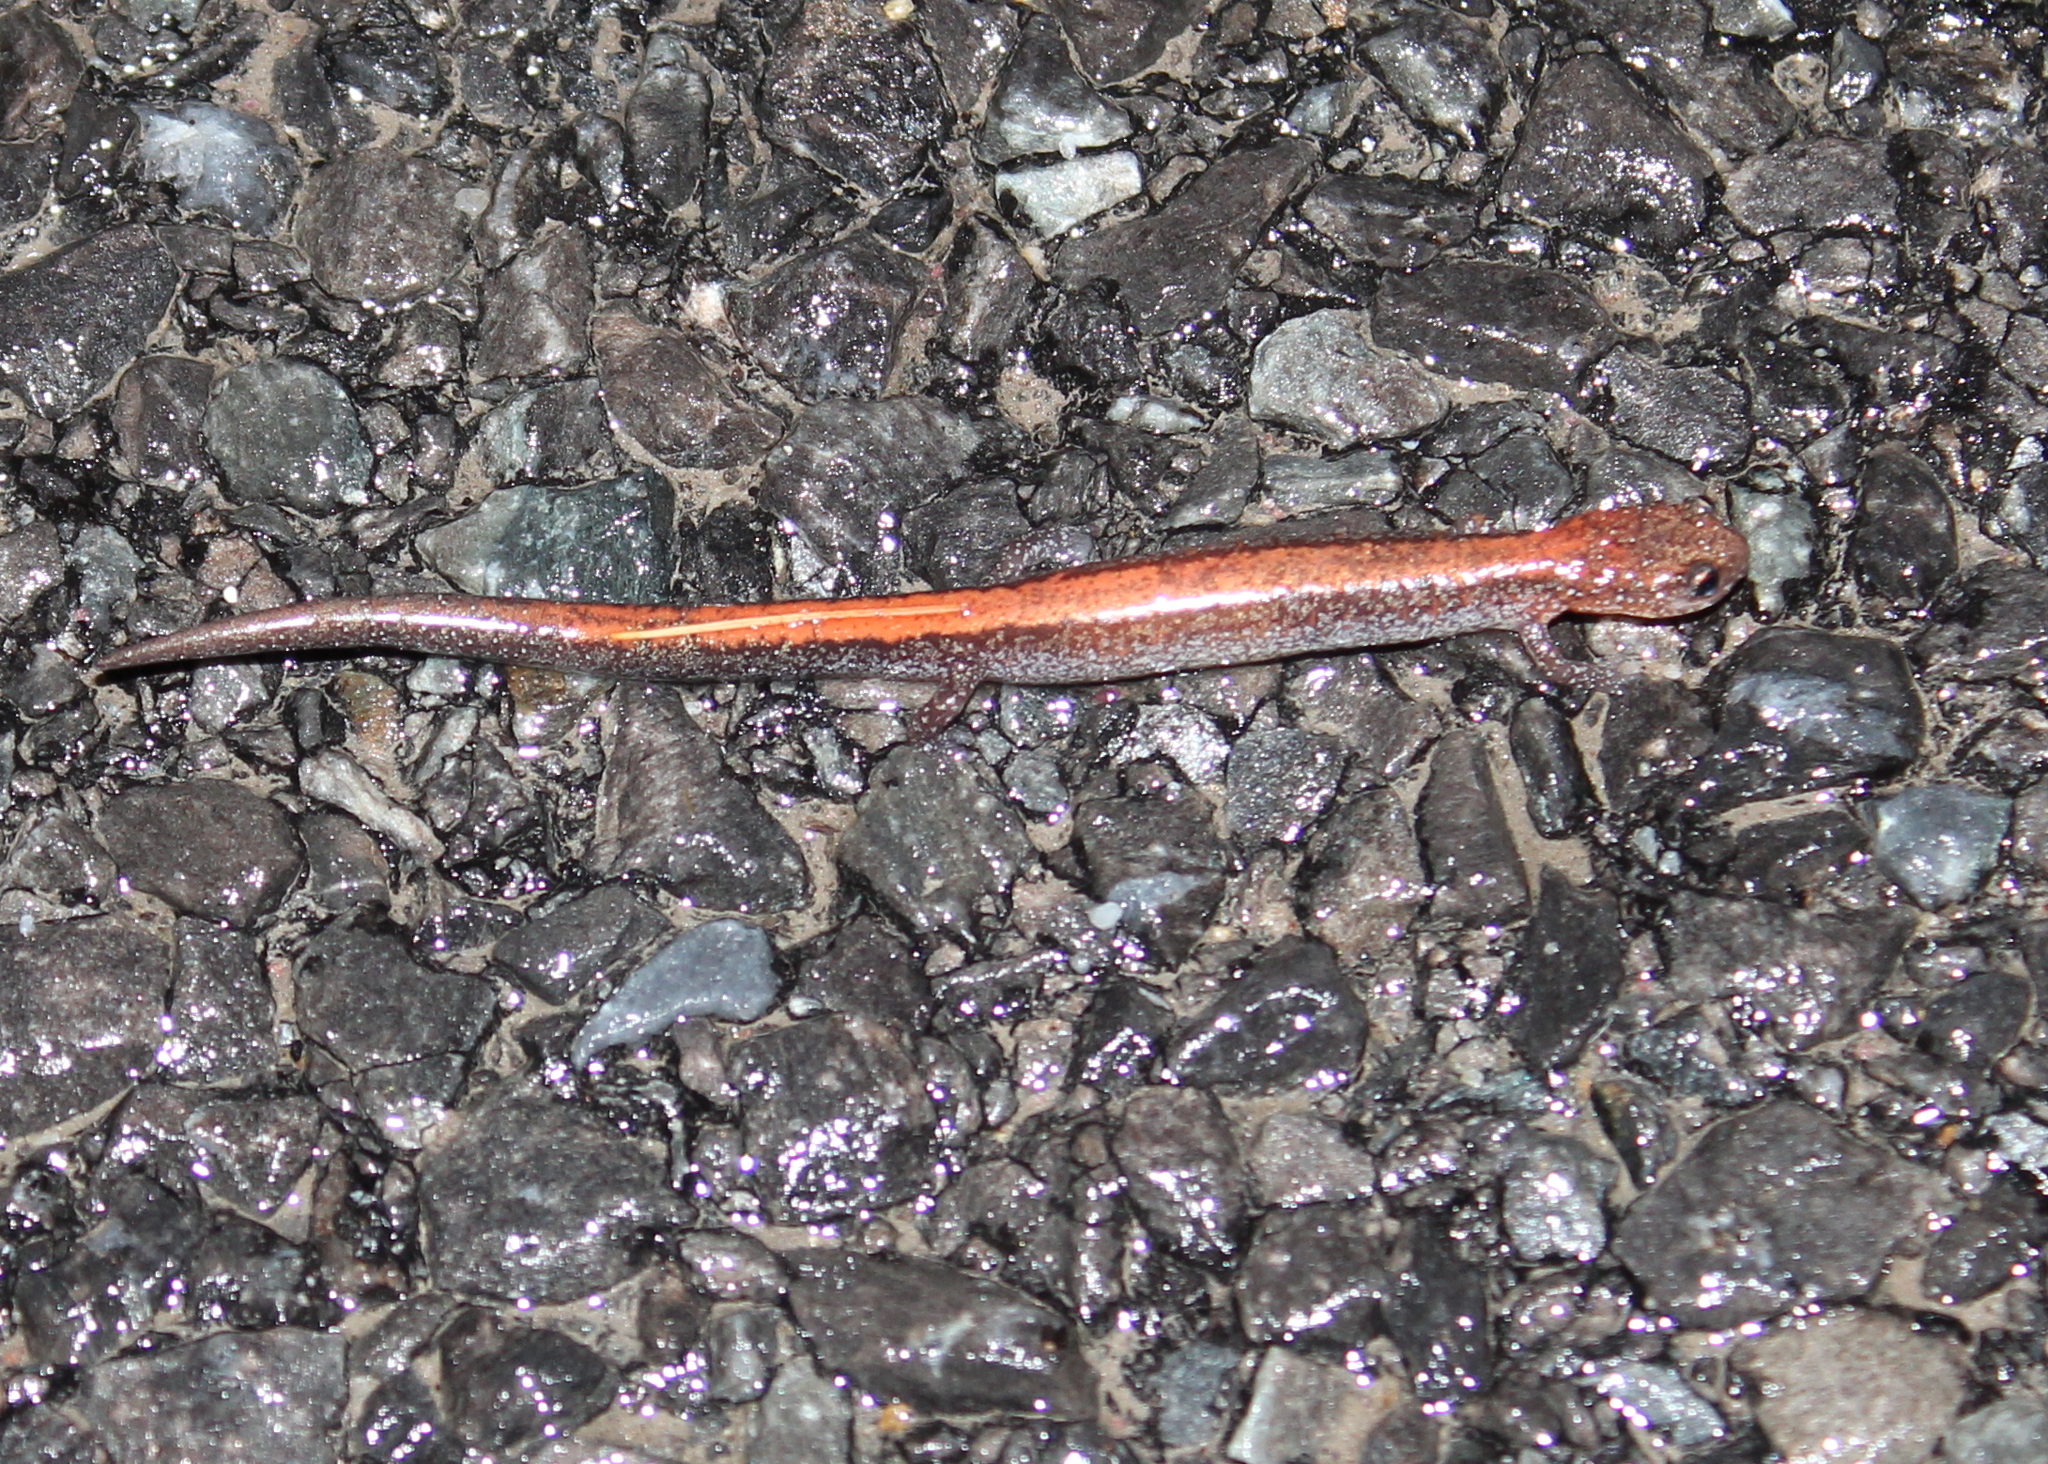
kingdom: Animalia
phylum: Chordata
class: Amphibia
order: Caudata
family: Plethodontidae
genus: Plethodon
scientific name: Plethodon cinereus
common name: Redback salamander
